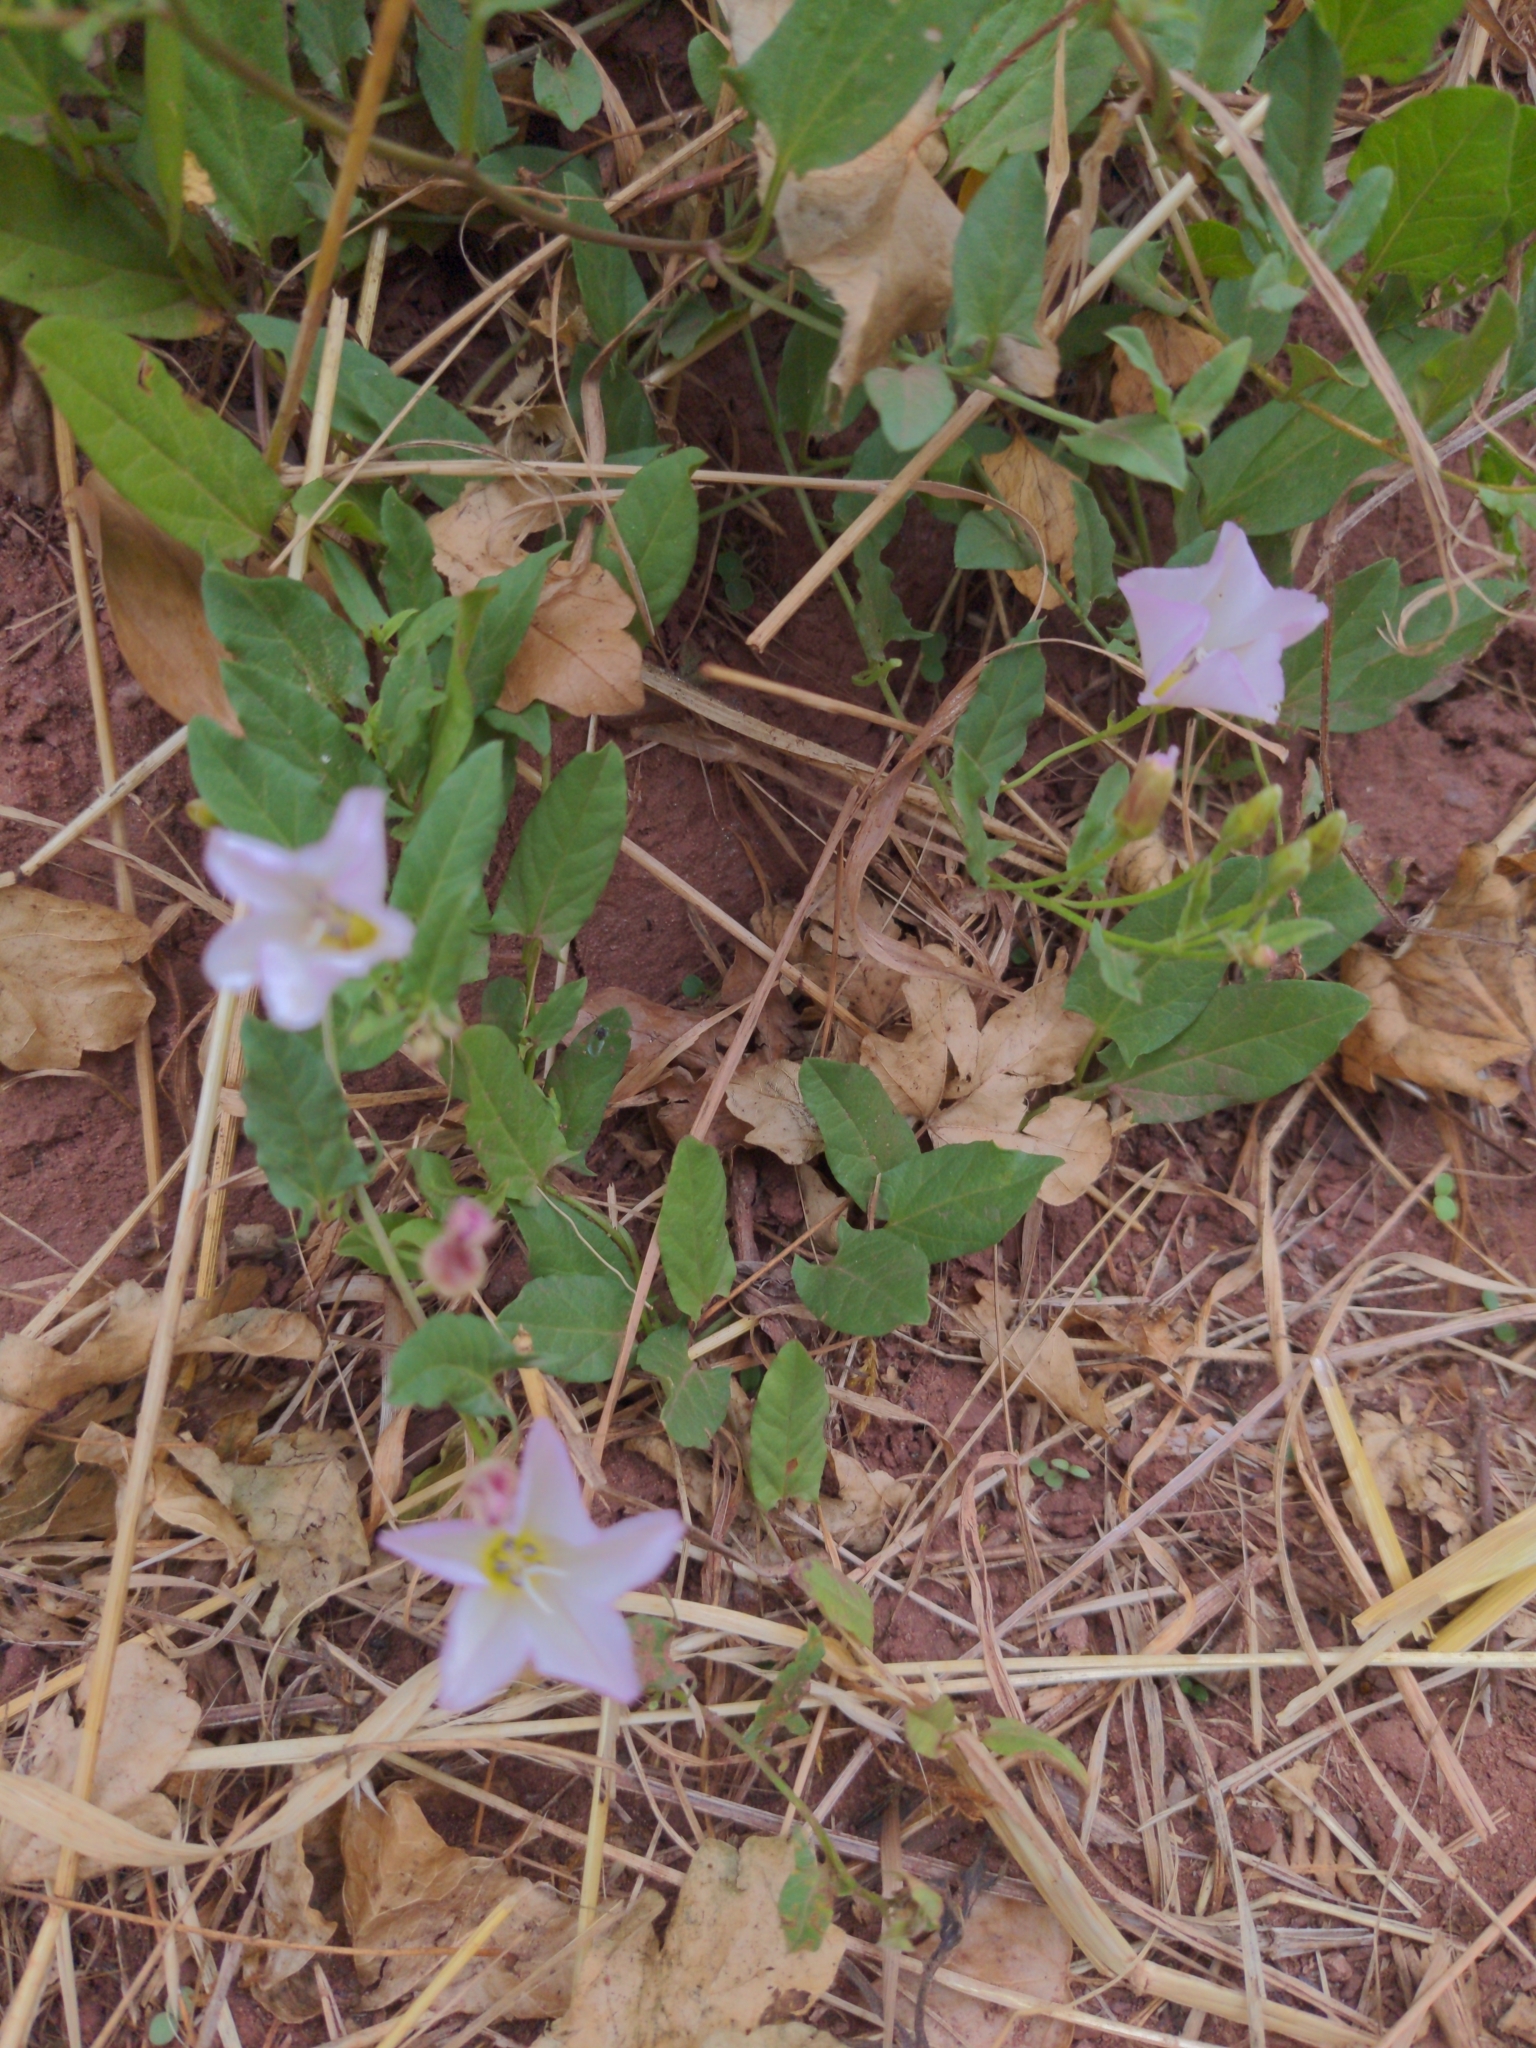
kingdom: Plantae
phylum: Tracheophyta
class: Magnoliopsida
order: Solanales
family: Convolvulaceae
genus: Convolvulus
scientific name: Convolvulus arvensis
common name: Field bindweed
